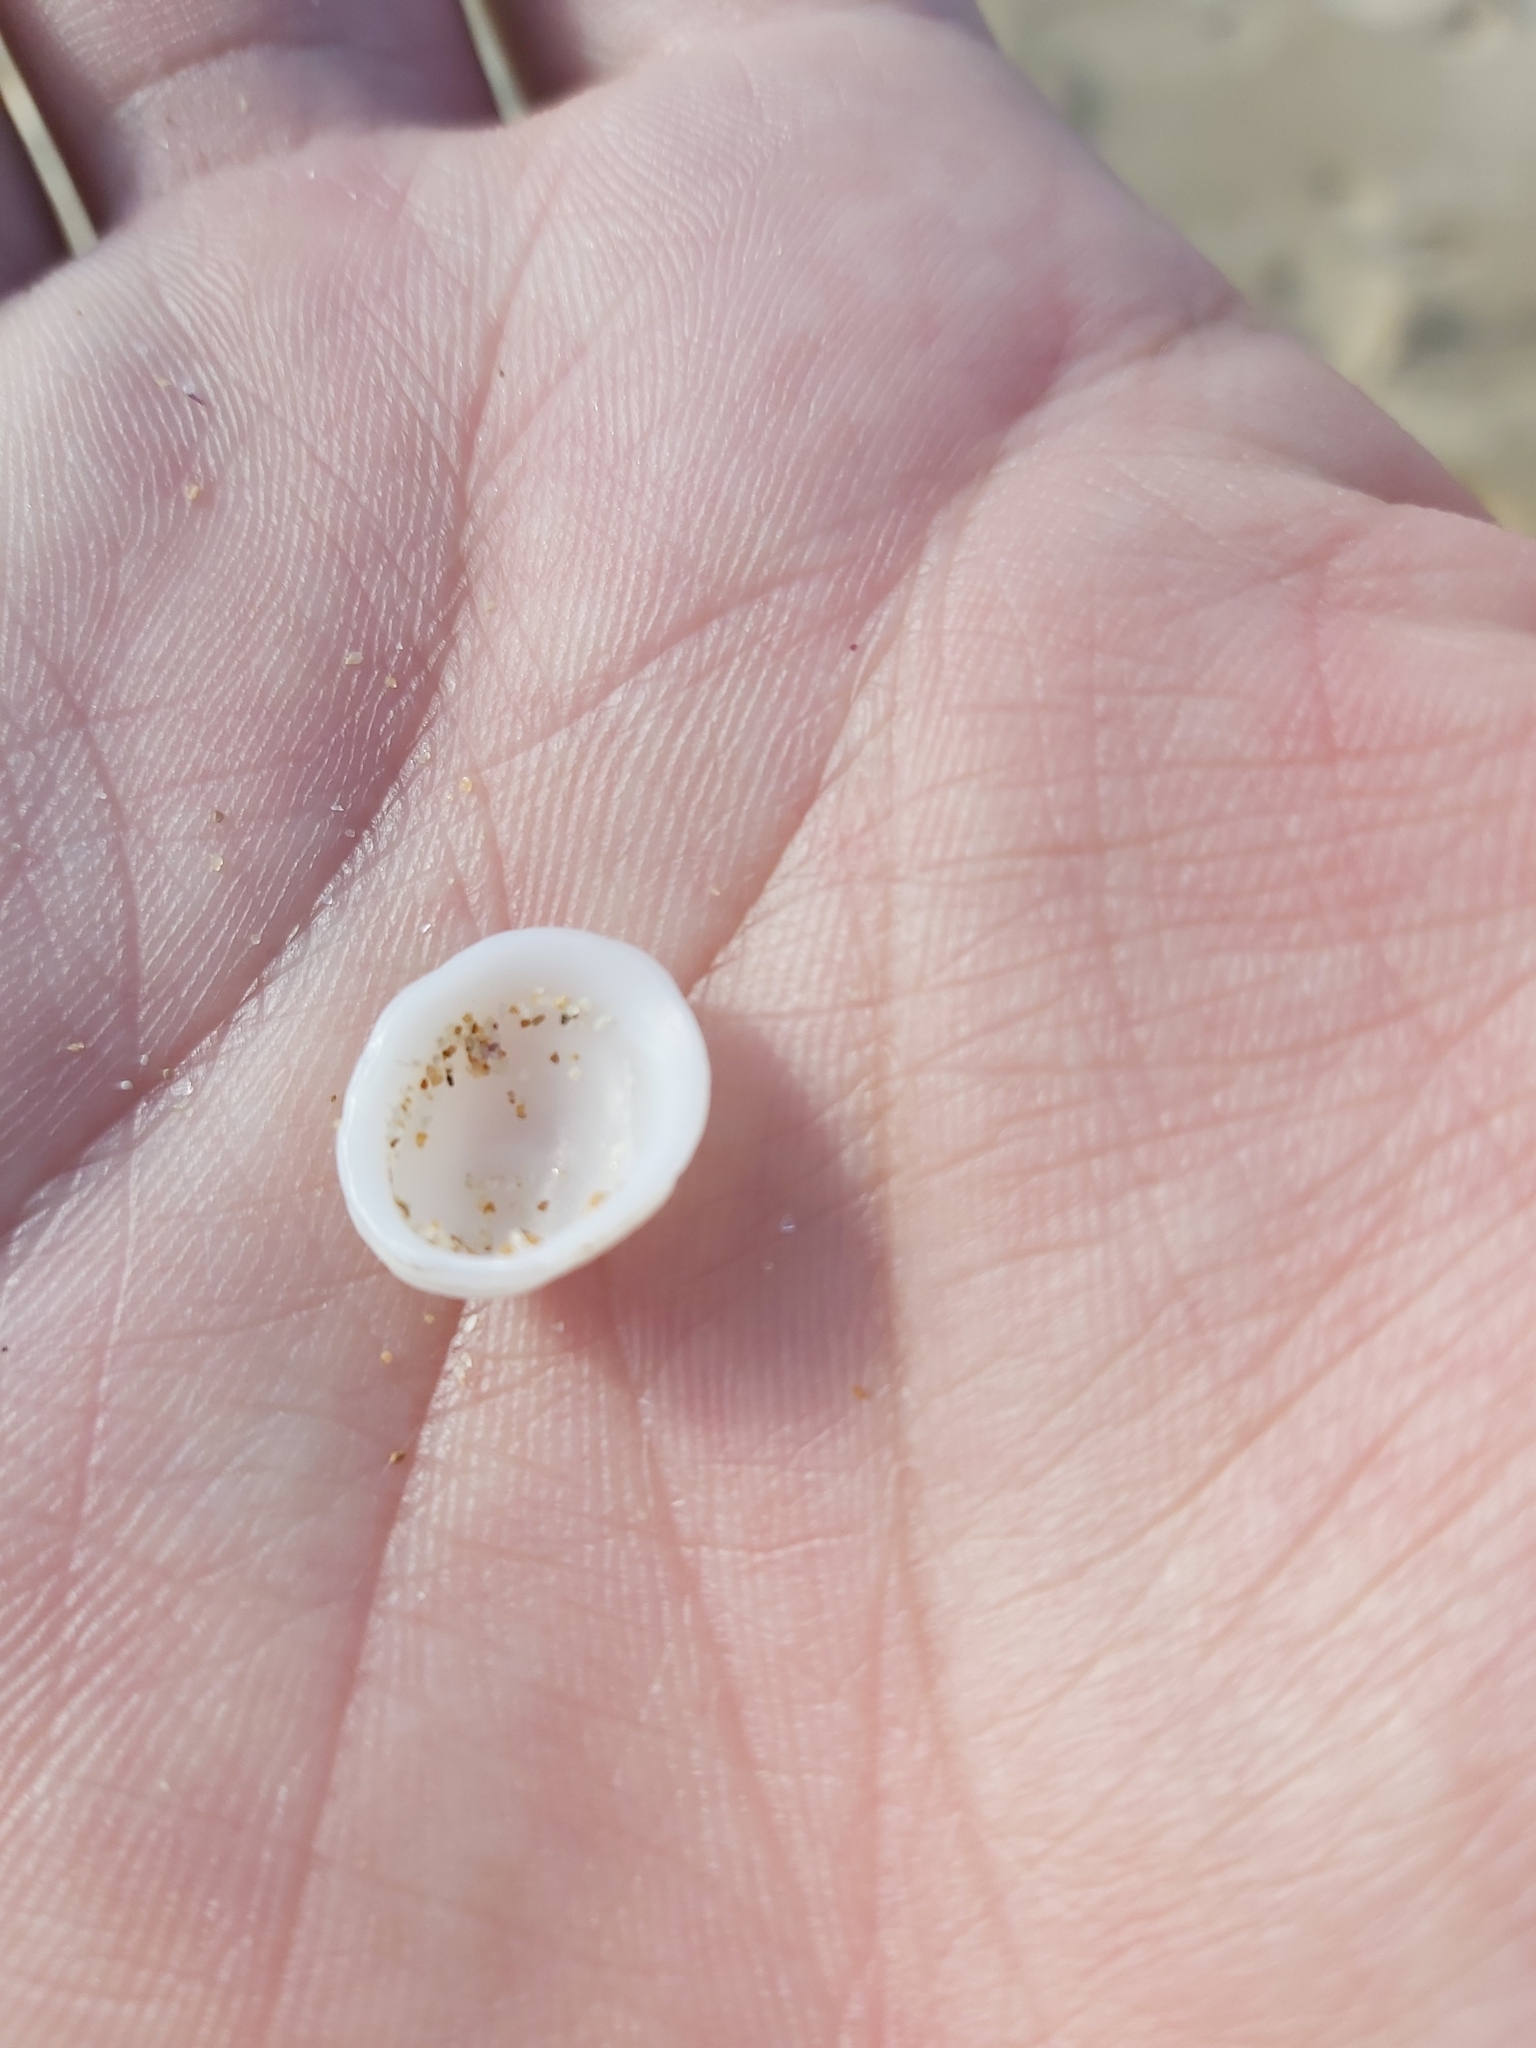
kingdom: Animalia
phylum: Mollusca
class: Gastropoda
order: Littorinimorpha
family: Hipponicidae
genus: Antisabia
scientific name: Antisabia foliacea
